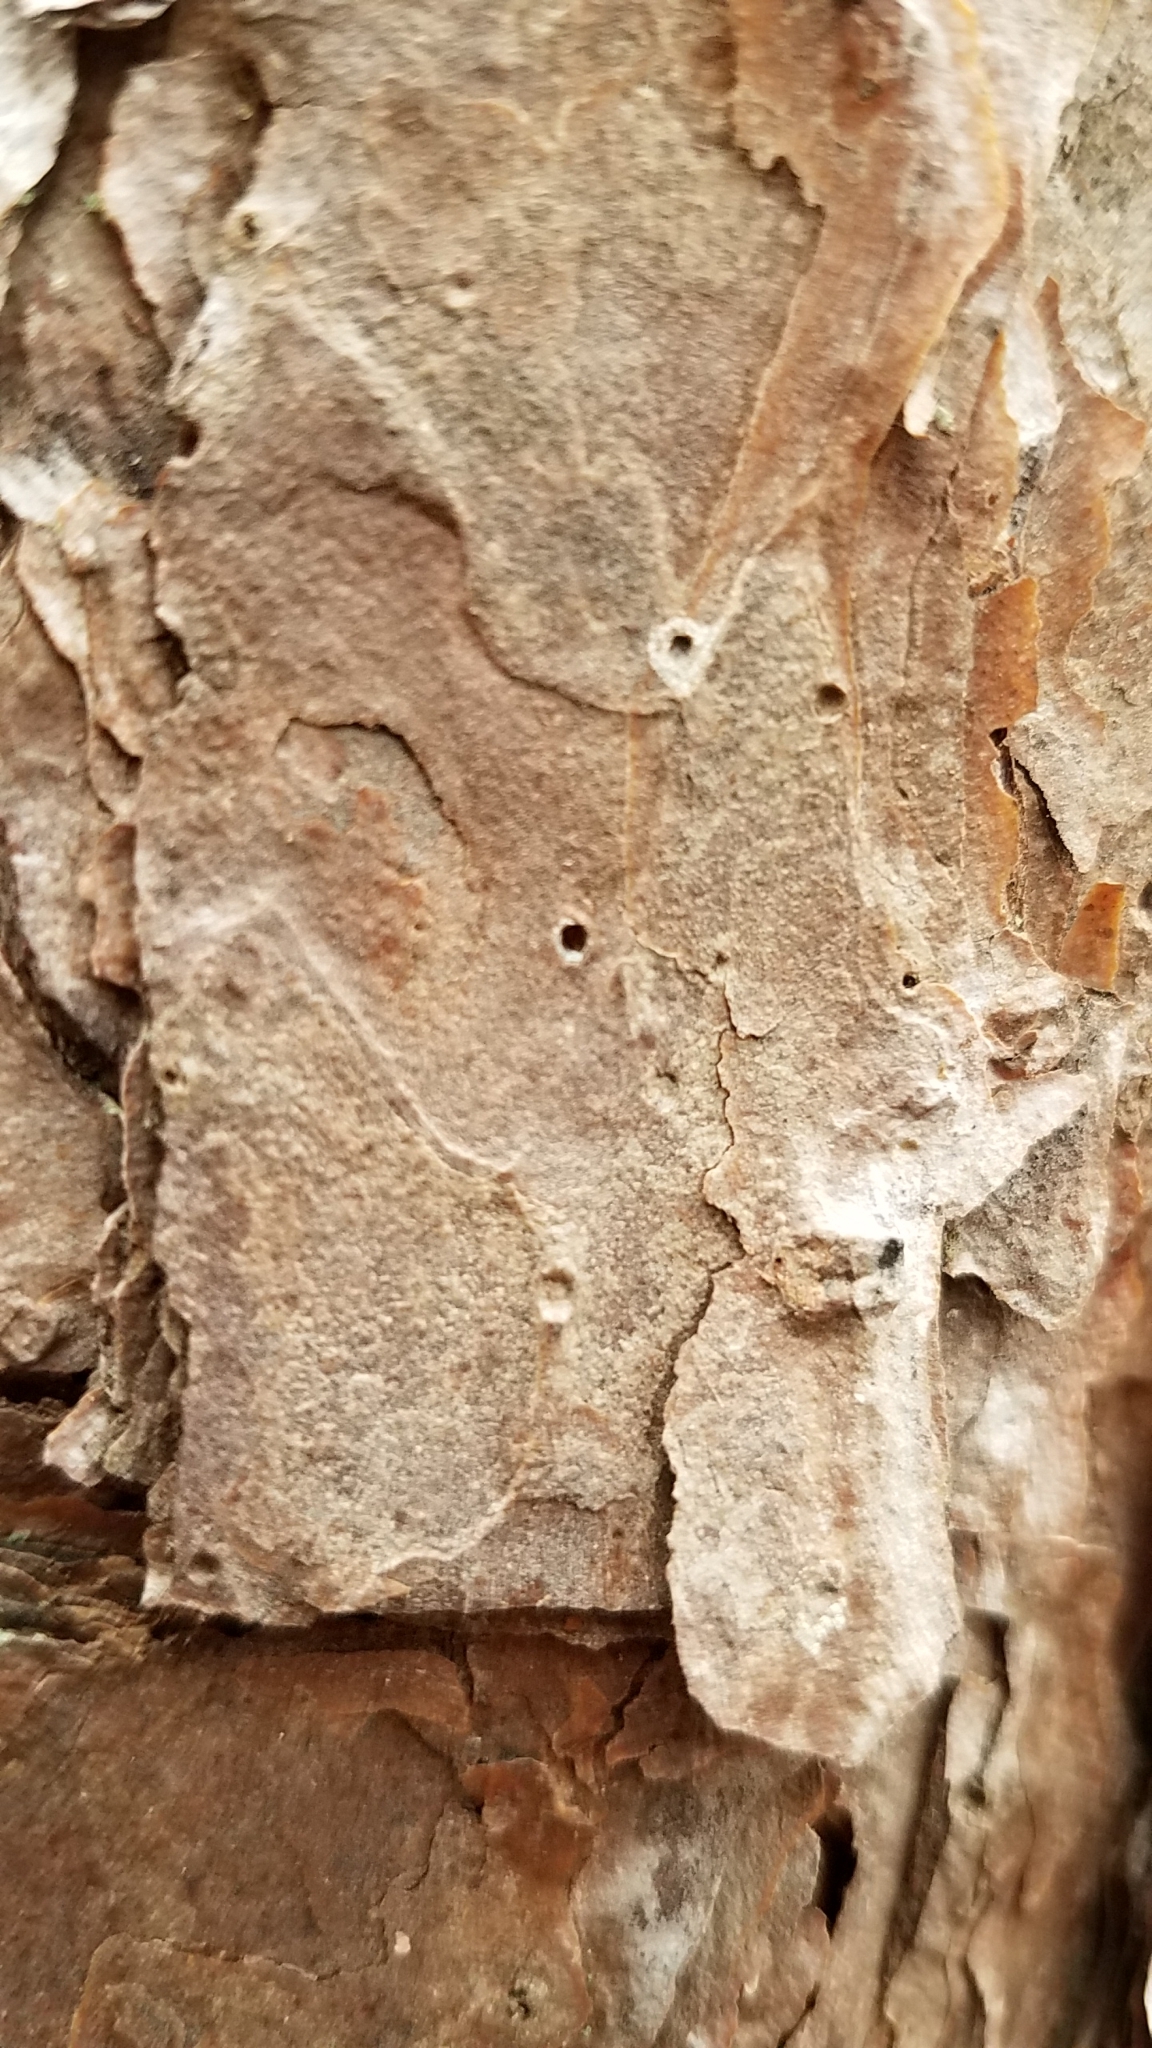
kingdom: Plantae
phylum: Tracheophyta
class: Pinopsida
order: Pinales
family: Pinaceae
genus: Pinus
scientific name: Pinus echinata
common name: Shortleaf pine
